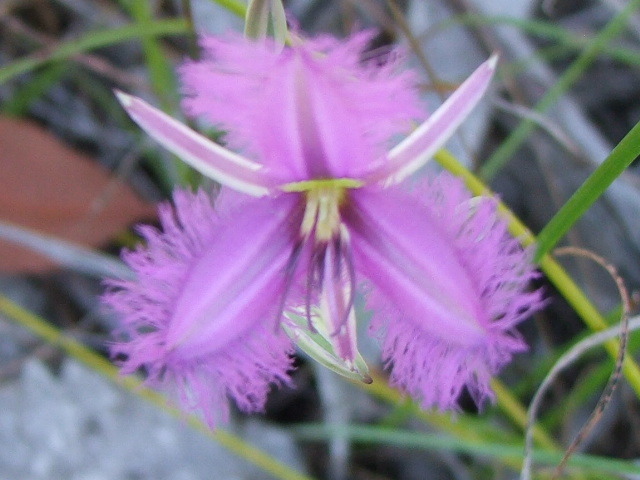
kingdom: Plantae
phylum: Tracheophyta
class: Liliopsida
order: Asparagales
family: Asparagaceae
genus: Thysanotus
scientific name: Thysanotus tuberosus
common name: Common fringed-lily
